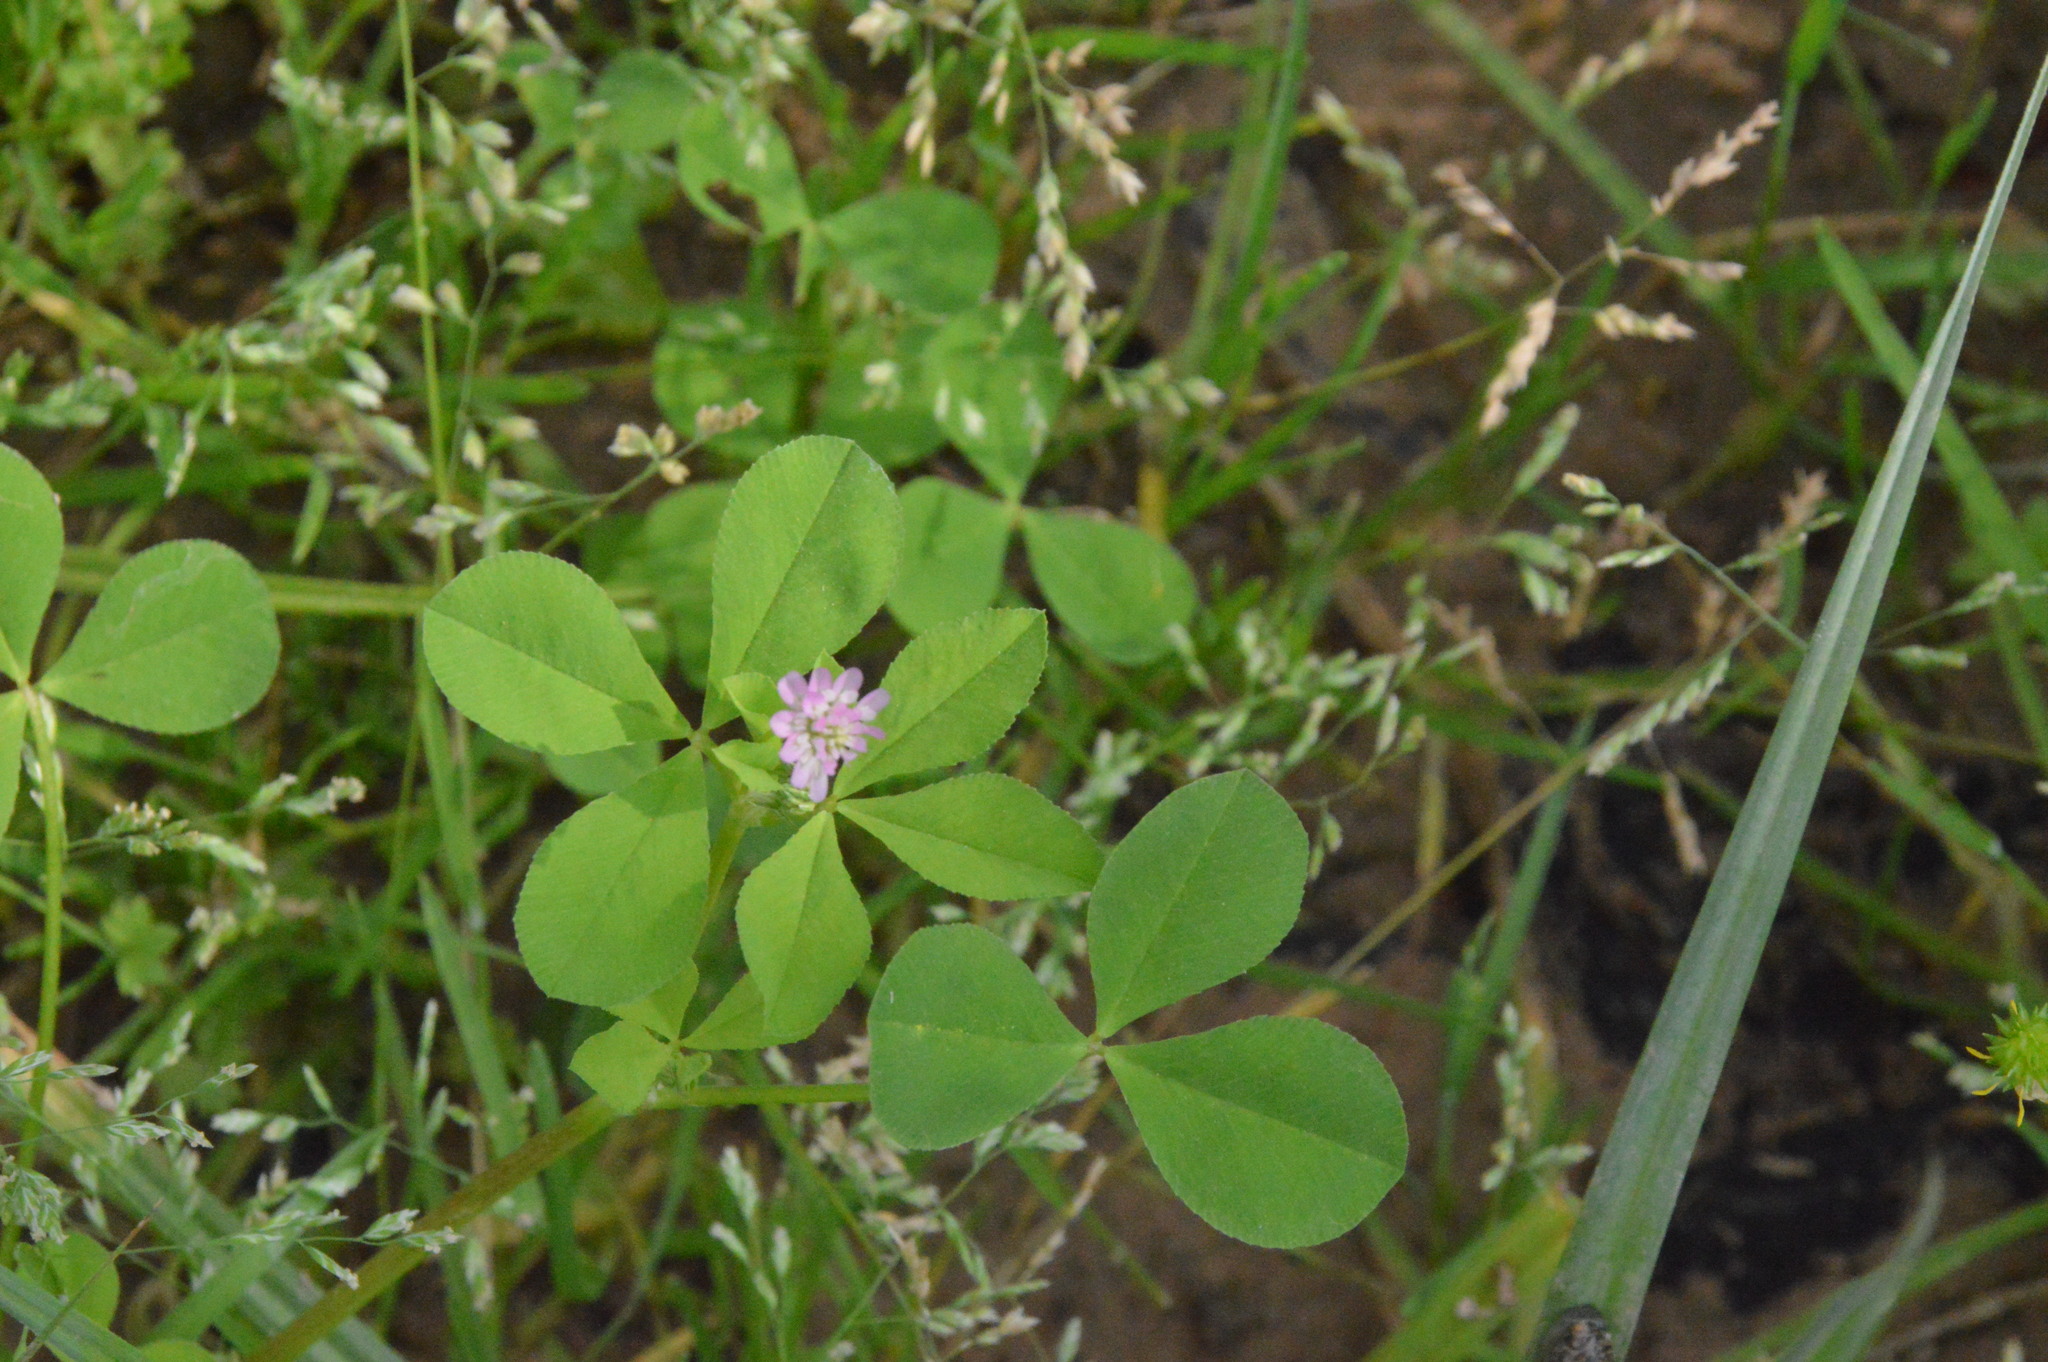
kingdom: Plantae
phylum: Tracheophyta
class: Magnoliopsida
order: Fabales
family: Fabaceae
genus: Trifolium
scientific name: Trifolium resupinatum
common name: Reversed clover
